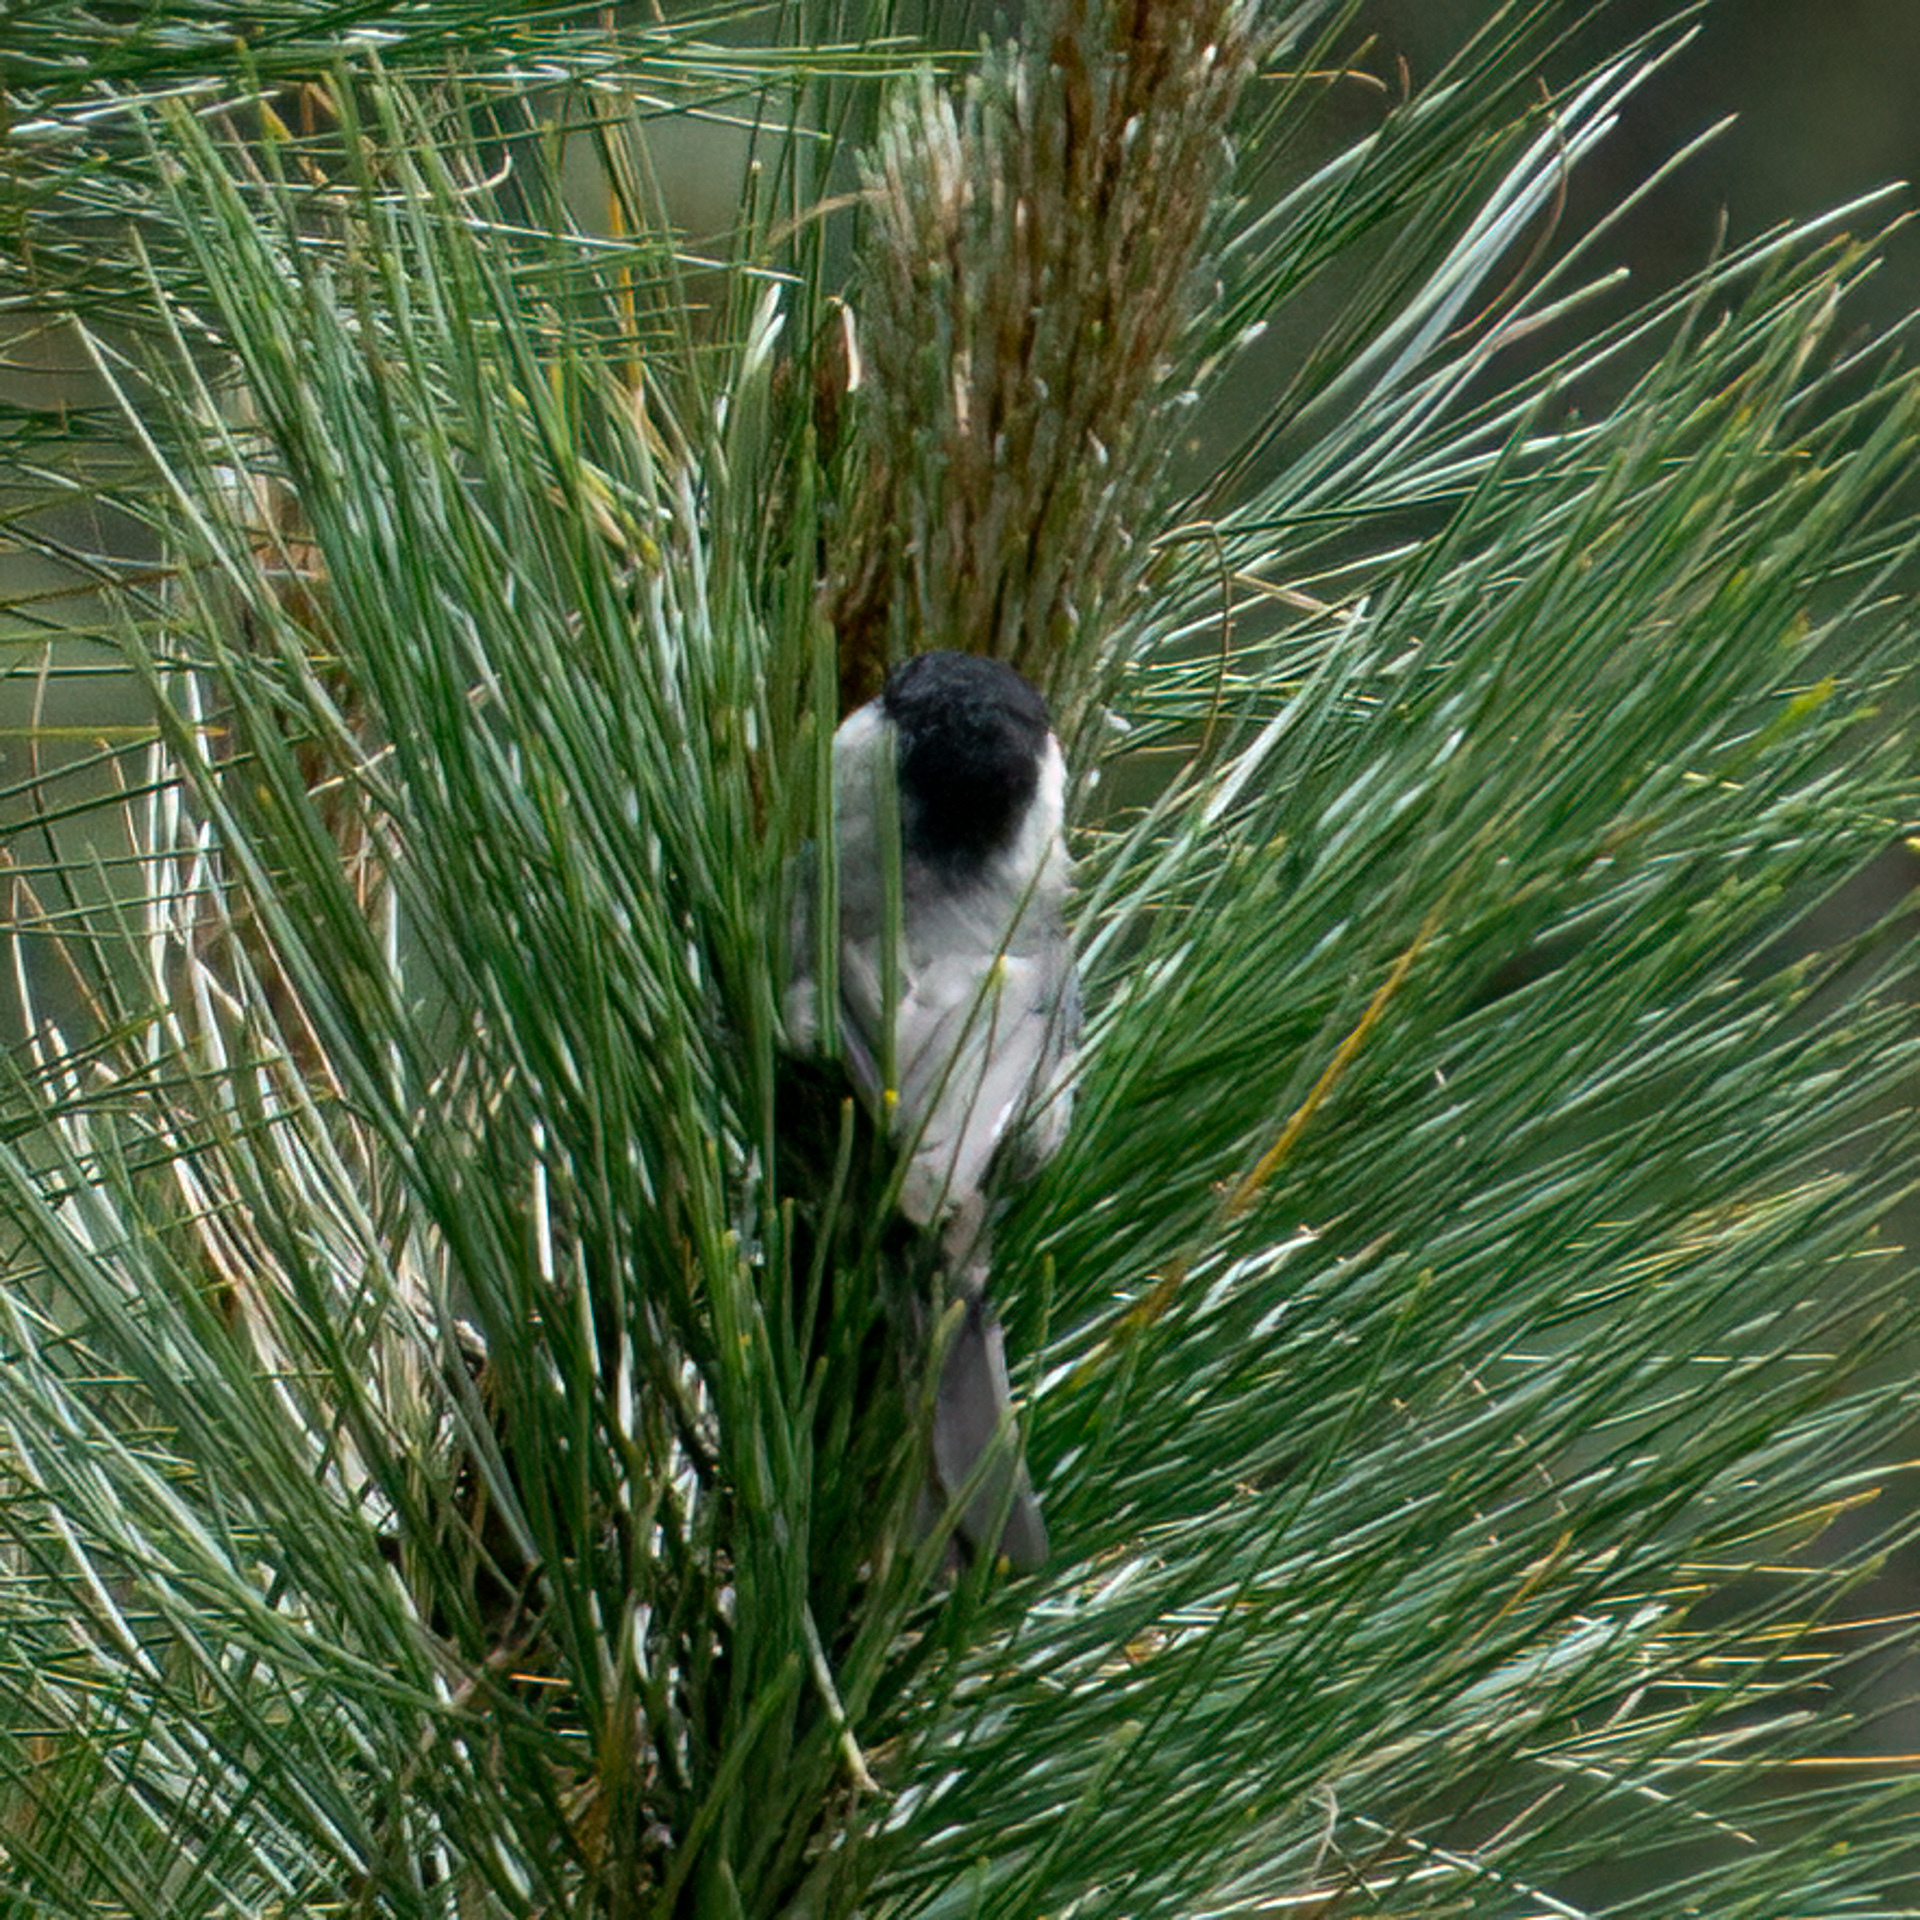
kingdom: Animalia
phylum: Chordata
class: Aves
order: Passeriformes
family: Paridae
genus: Poecile
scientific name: Poecile sclateri
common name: Mexican chickadee
